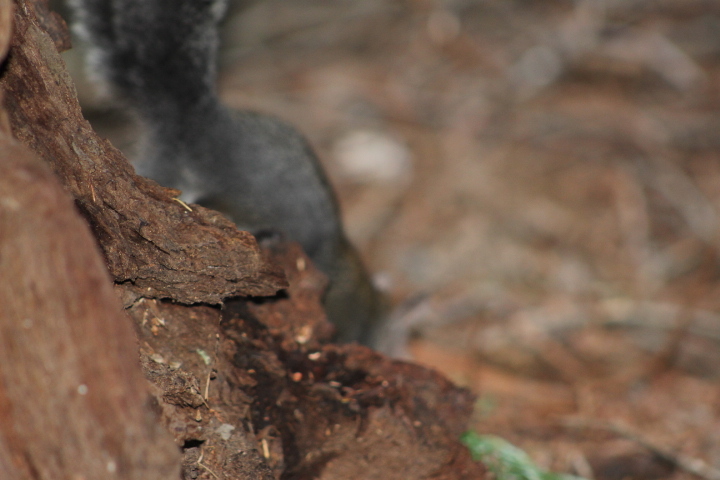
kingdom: Animalia
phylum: Chordata
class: Mammalia
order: Rodentia
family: Sciuridae
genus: Sciurus
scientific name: Sciurus griseus
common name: Western gray squirrel
